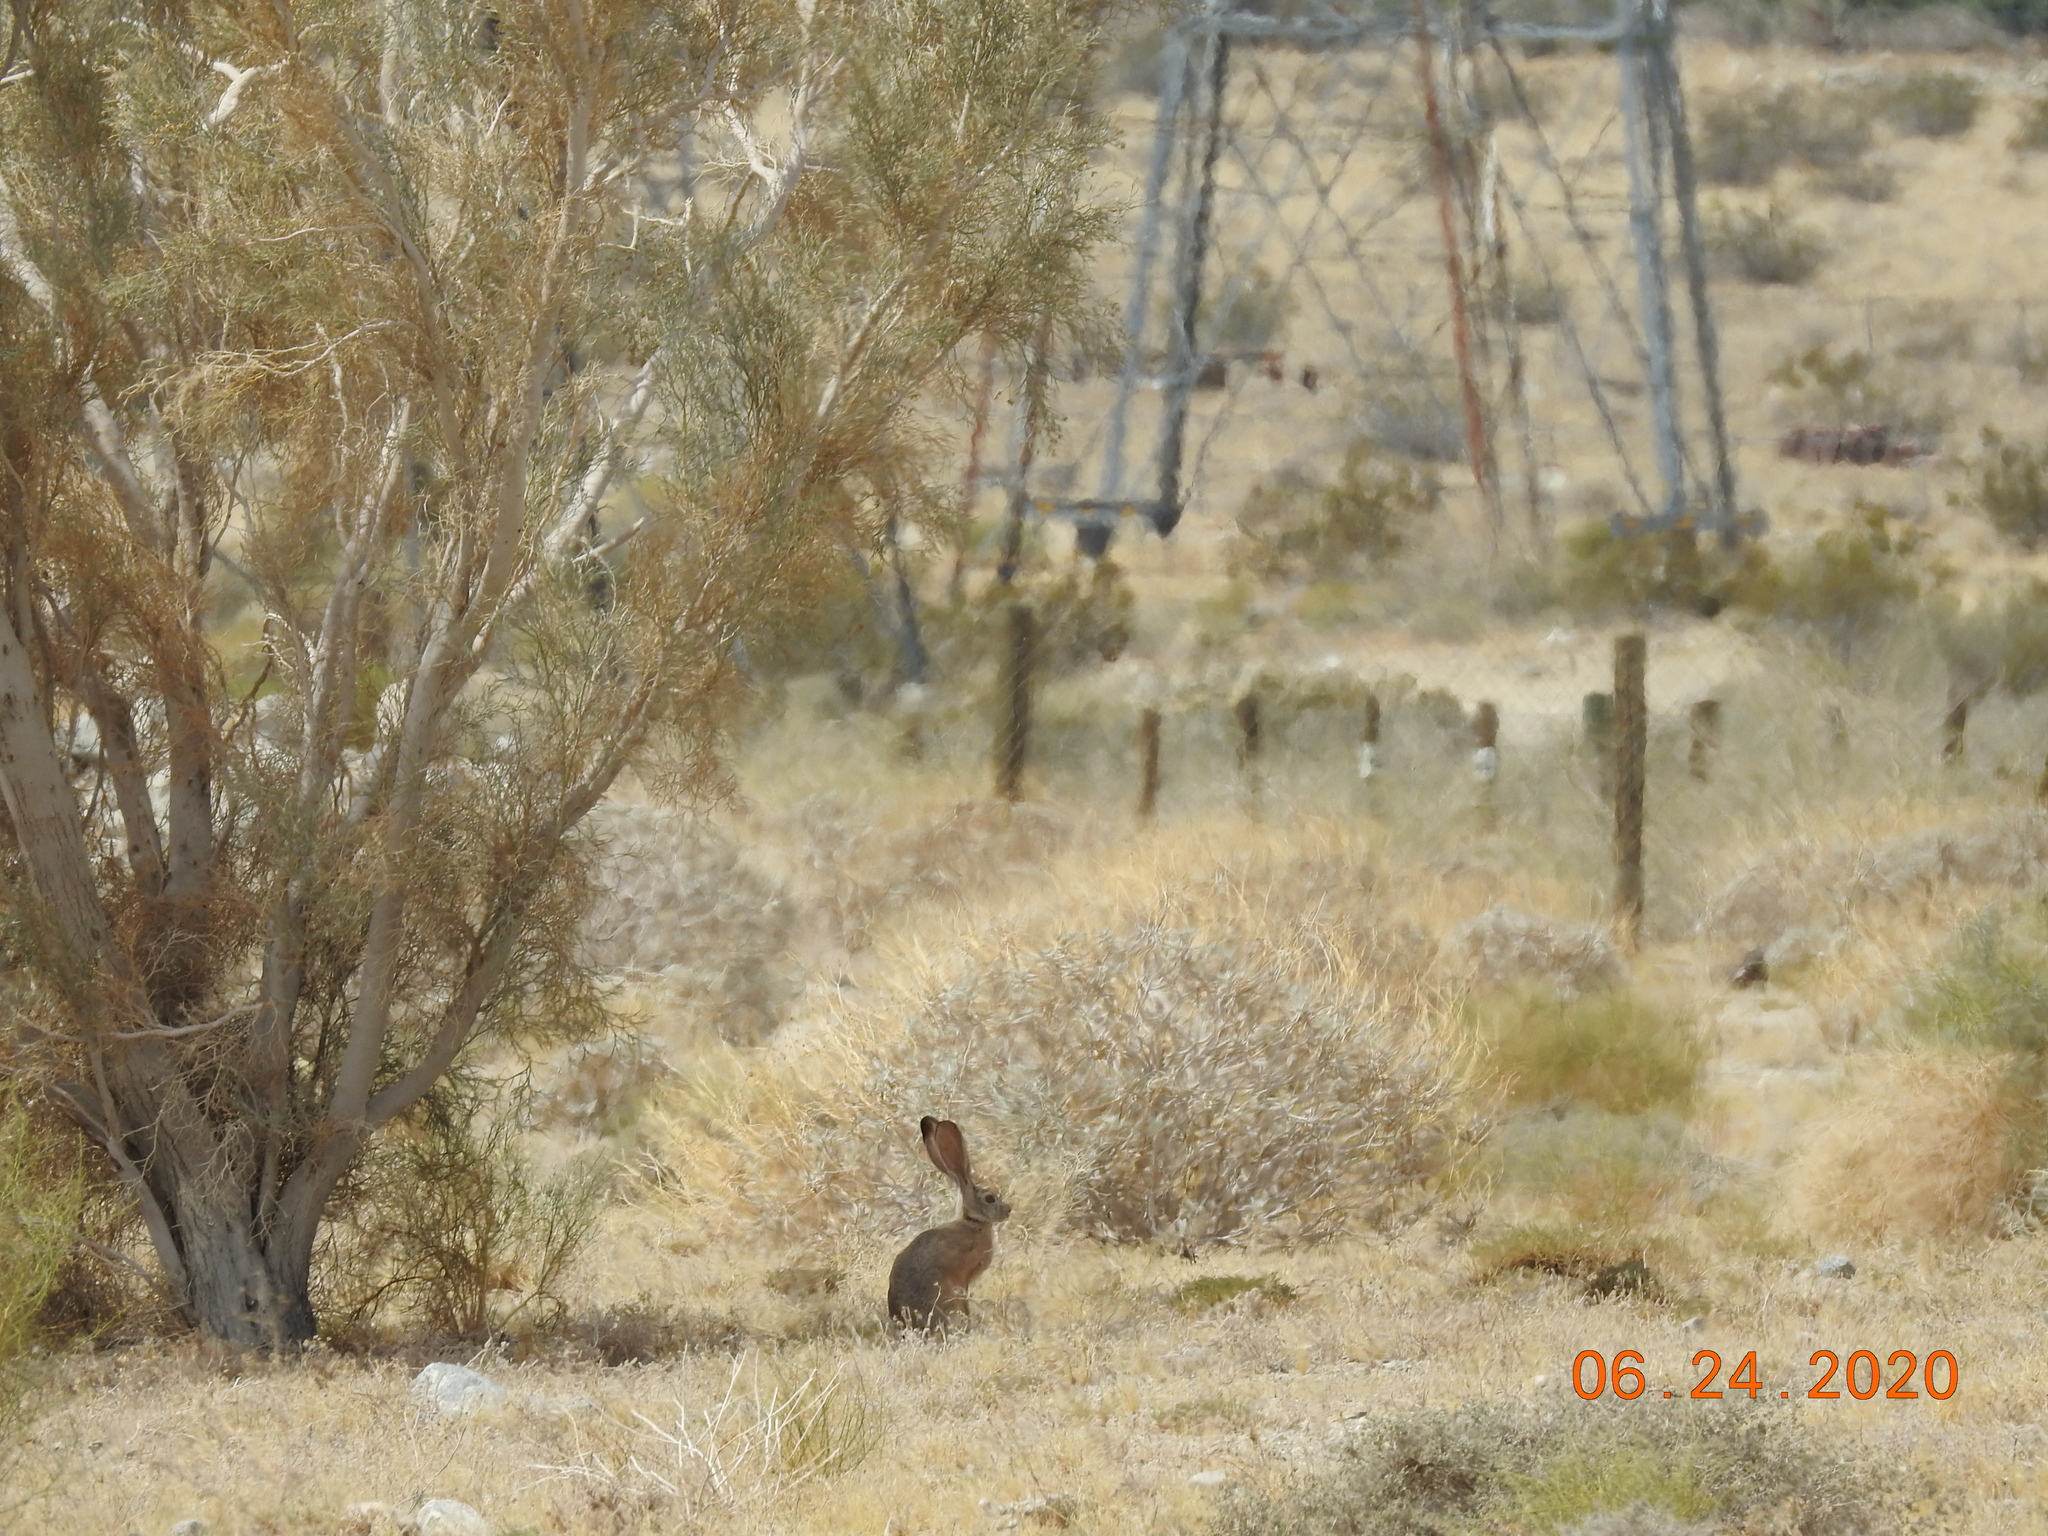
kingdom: Animalia
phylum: Chordata
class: Mammalia
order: Lagomorpha
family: Leporidae
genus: Lepus
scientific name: Lepus californicus
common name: Black-tailed jackrabbit
